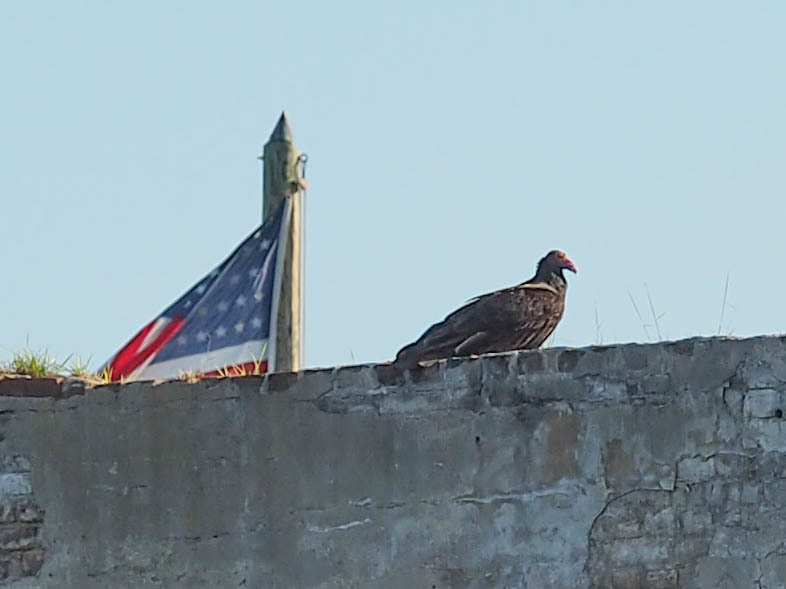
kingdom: Animalia
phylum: Chordata
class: Aves
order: Accipitriformes
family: Cathartidae
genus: Cathartes
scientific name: Cathartes aura
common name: Turkey vulture
